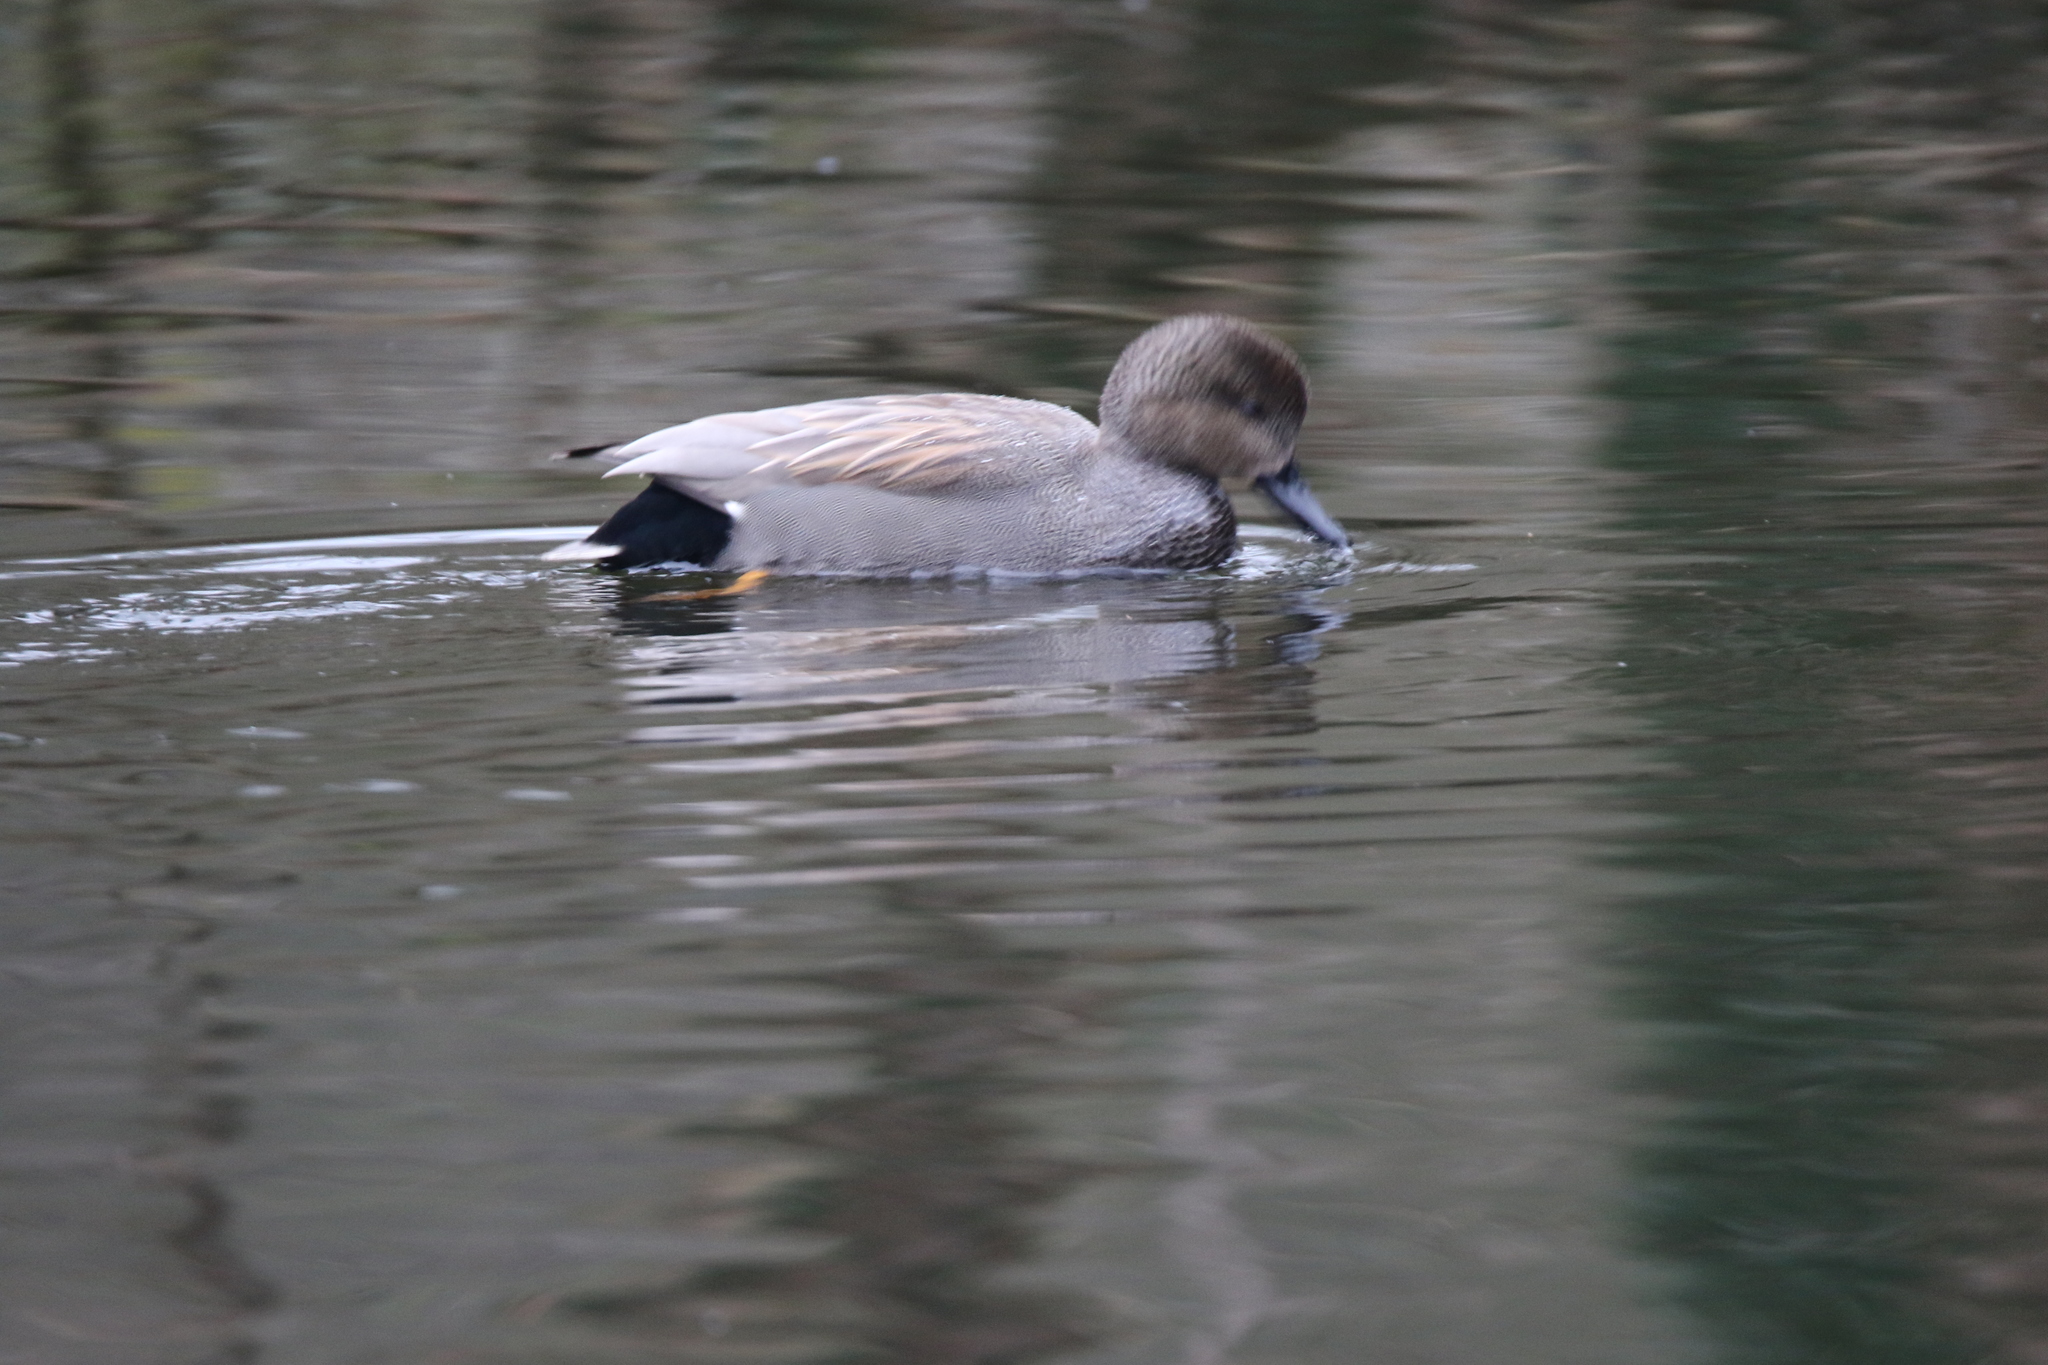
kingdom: Animalia
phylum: Chordata
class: Aves
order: Anseriformes
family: Anatidae
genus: Mareca
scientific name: Mareca strepera
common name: Gadwall
